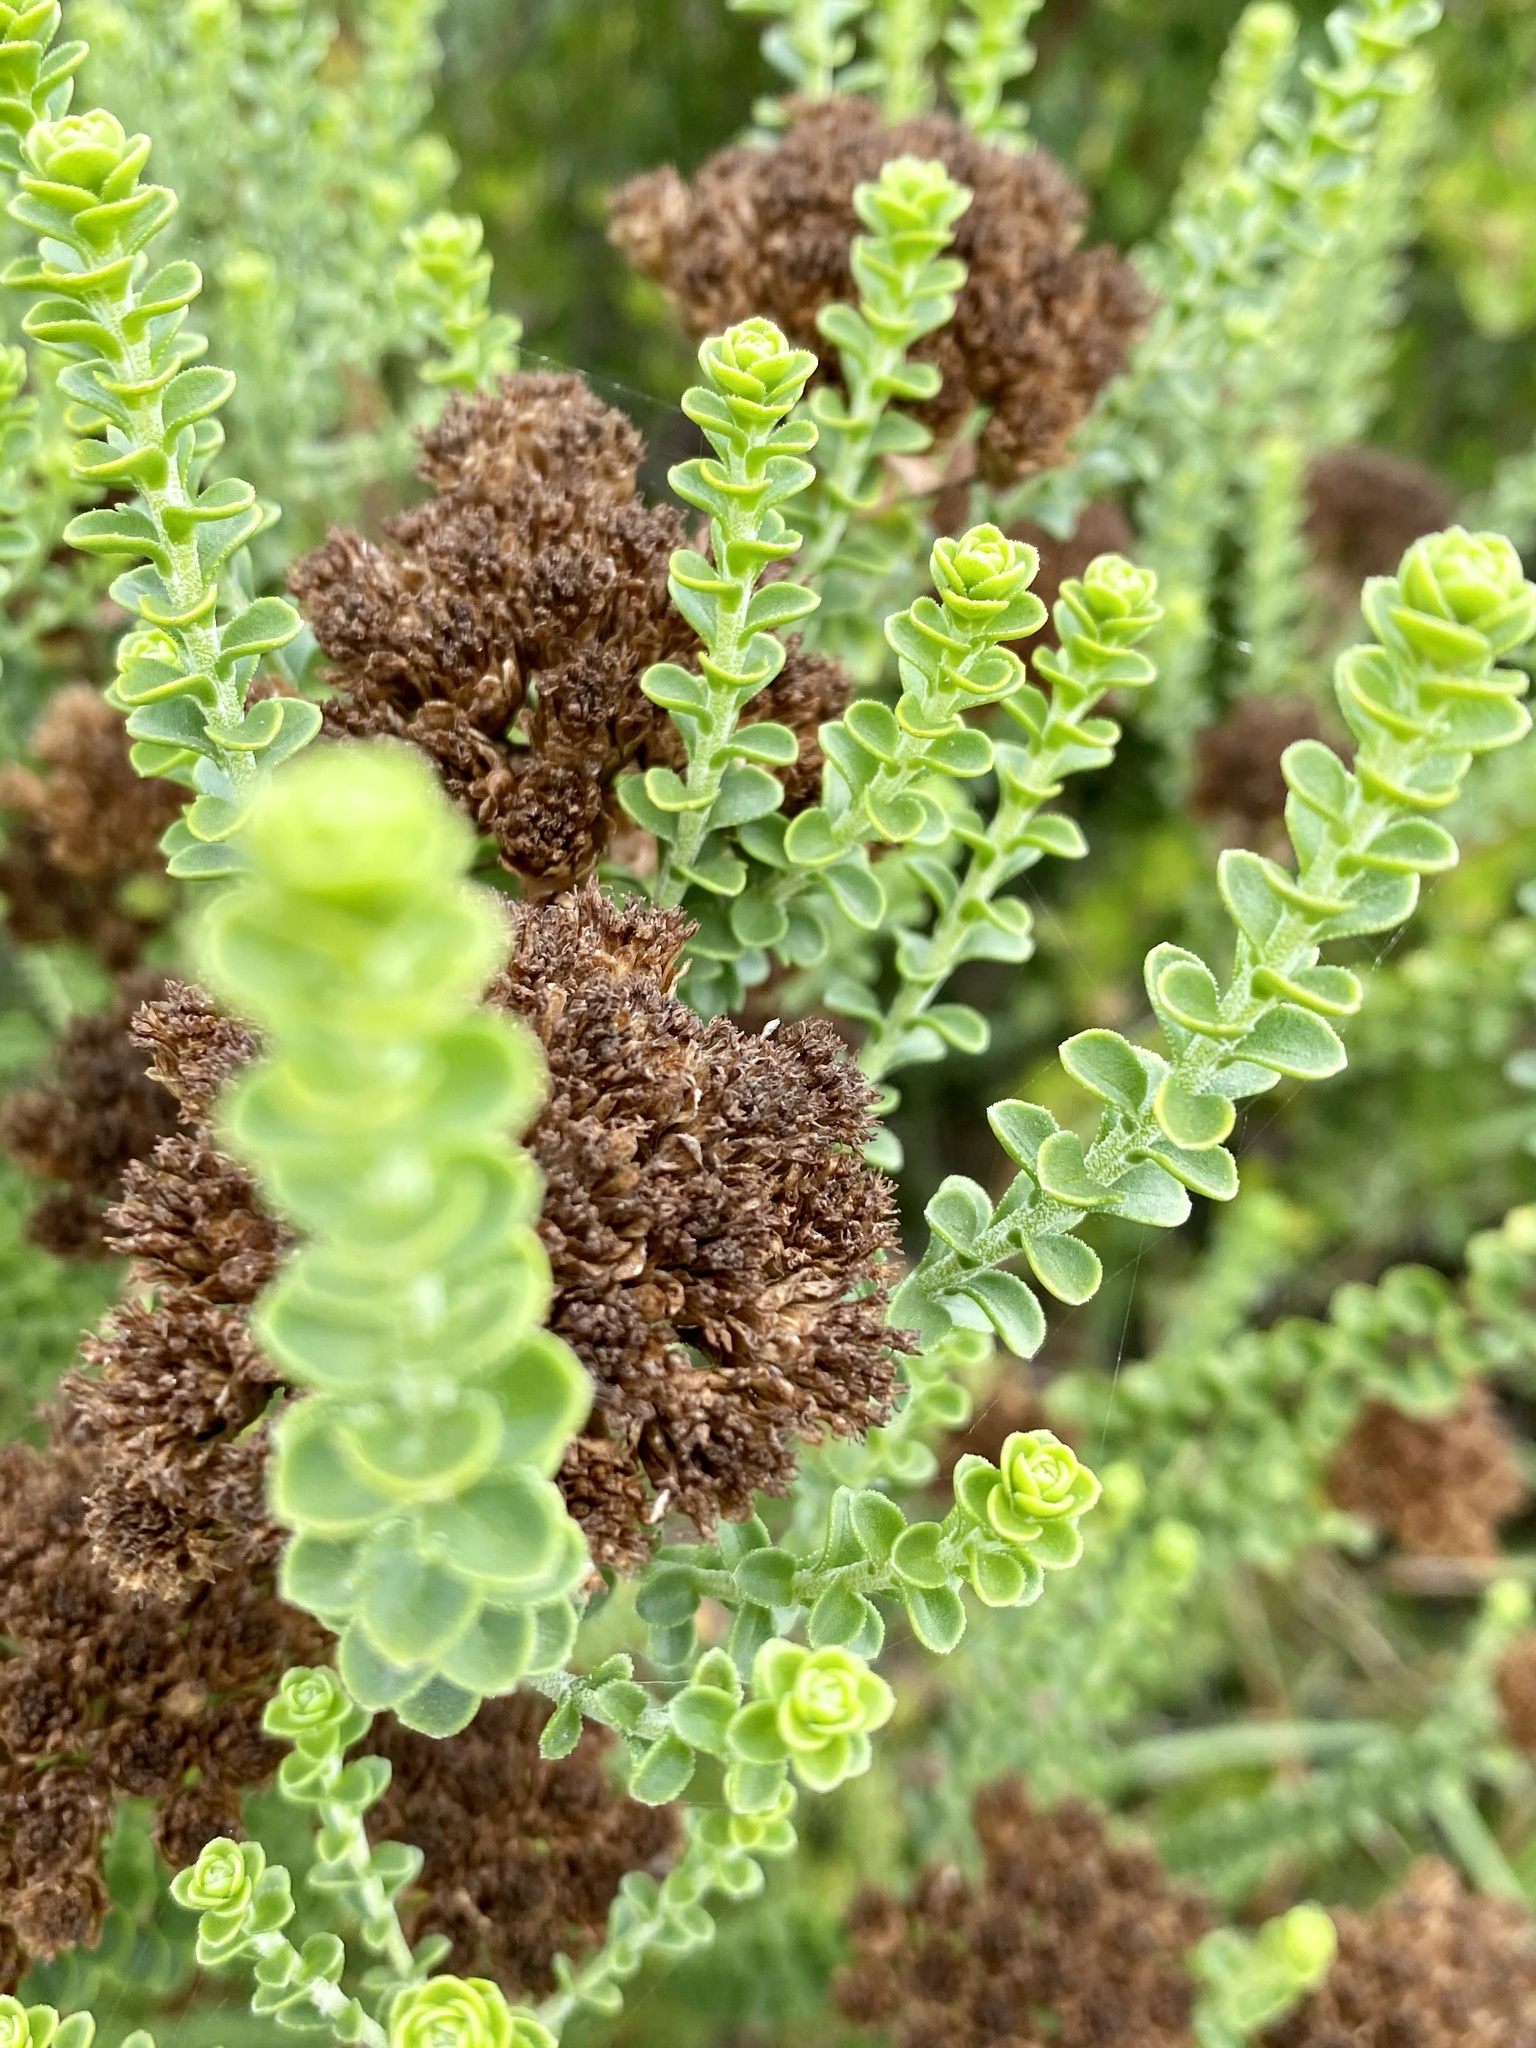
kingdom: Plantae
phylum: Tracheophyta
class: Magnoliopsida
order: Asterales
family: Asteraceae
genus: Athanasia
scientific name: Athanasia quinquedentata
